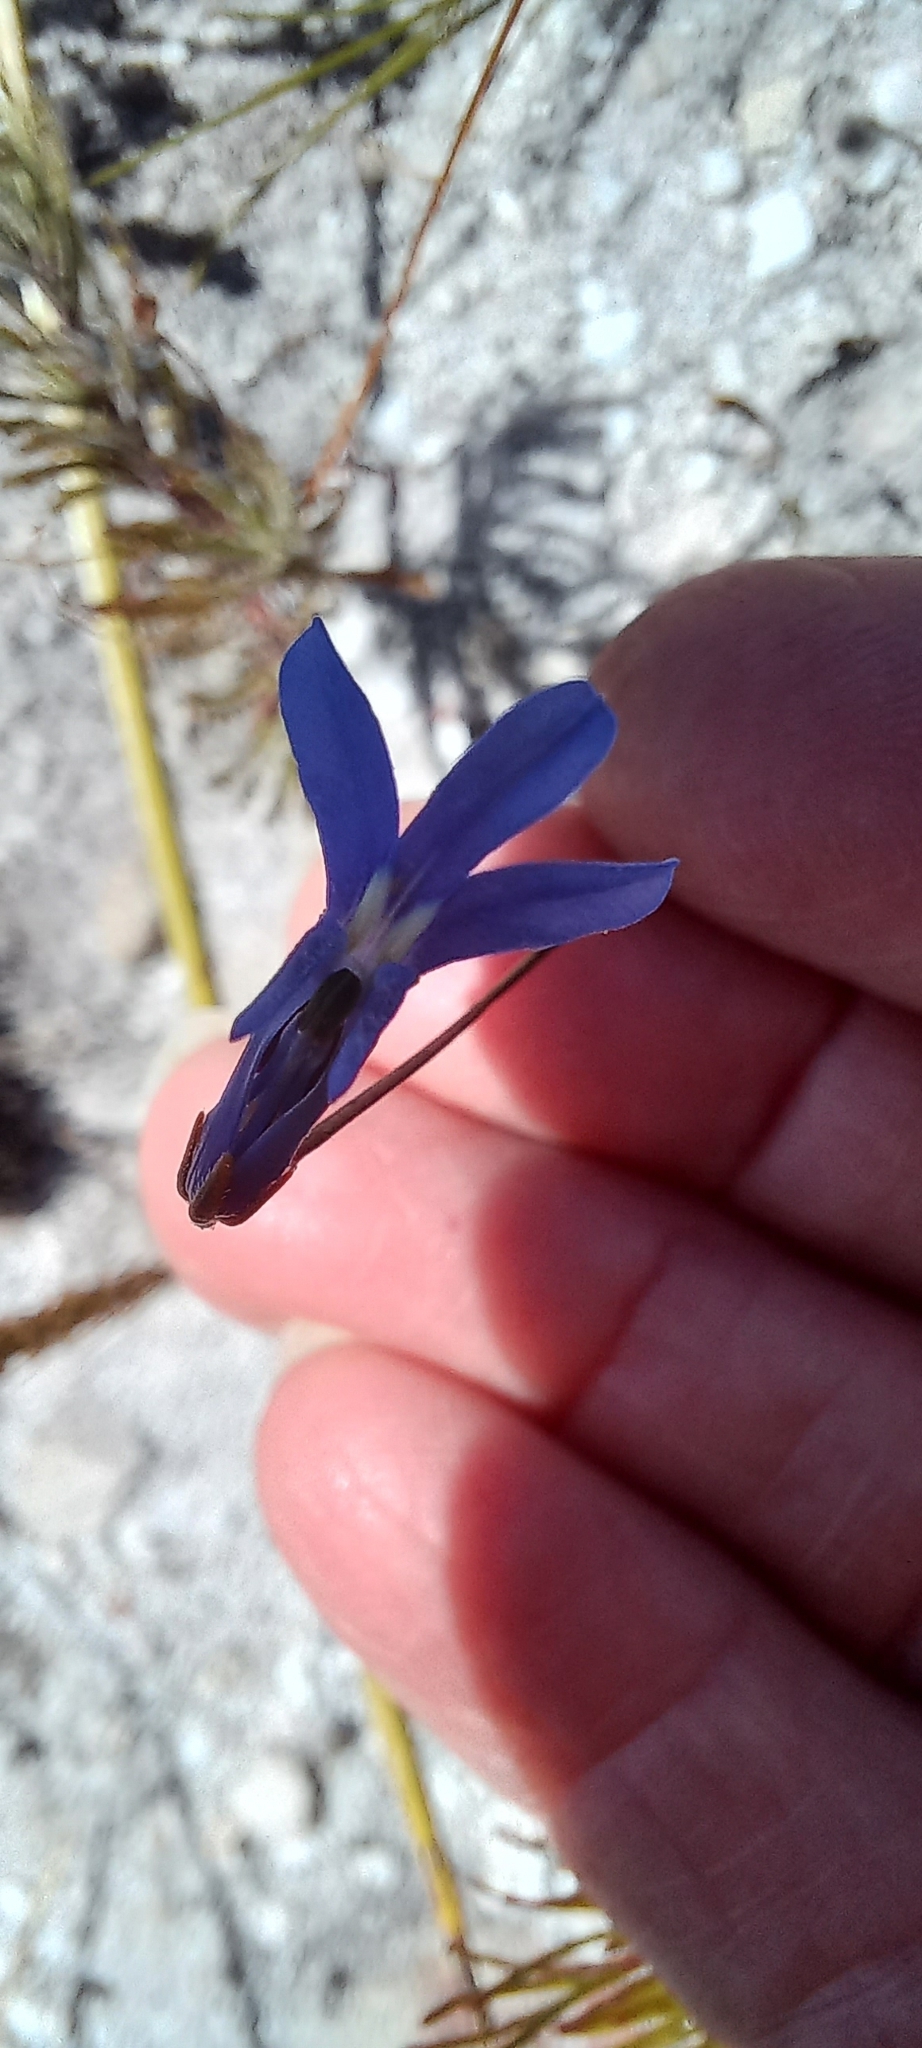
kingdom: Plantae
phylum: Tracheophyta
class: Magnoliopsida
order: Asterales
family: Campanulaceae
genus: Lobelia
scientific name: Lobelia chamaepitys
